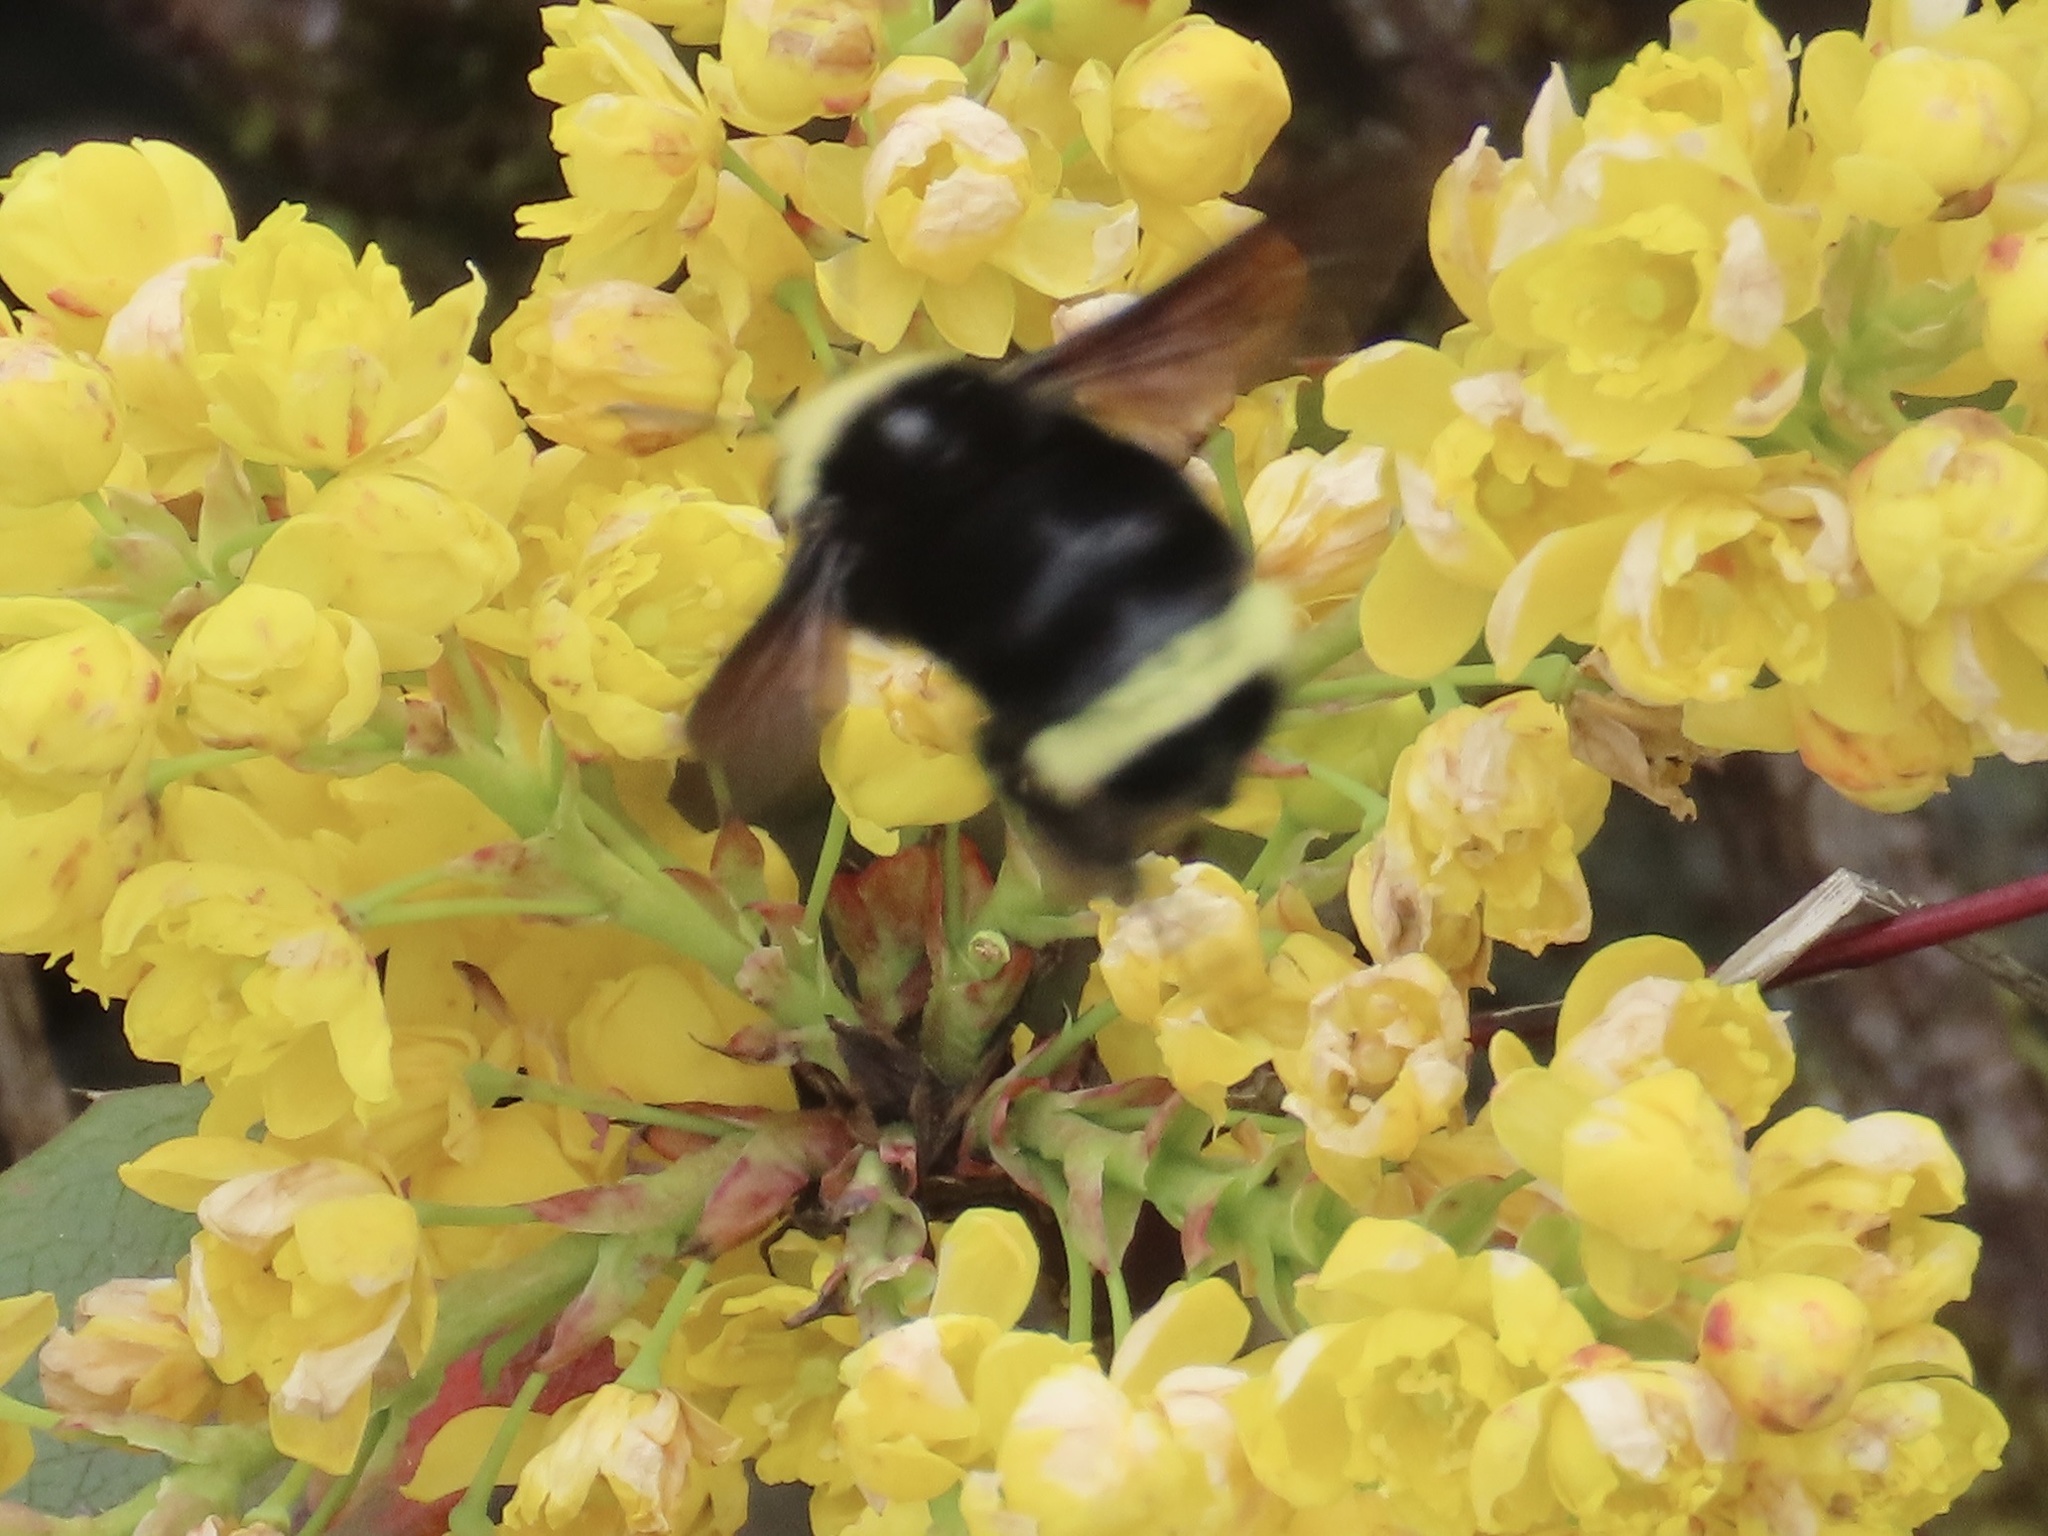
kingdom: Animalia
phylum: Arthropoda
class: Insecta
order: Hymenoptera
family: Apidae
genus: Bombus
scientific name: Bombus vosnesenskii
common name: Vosnesensky bumble bee
